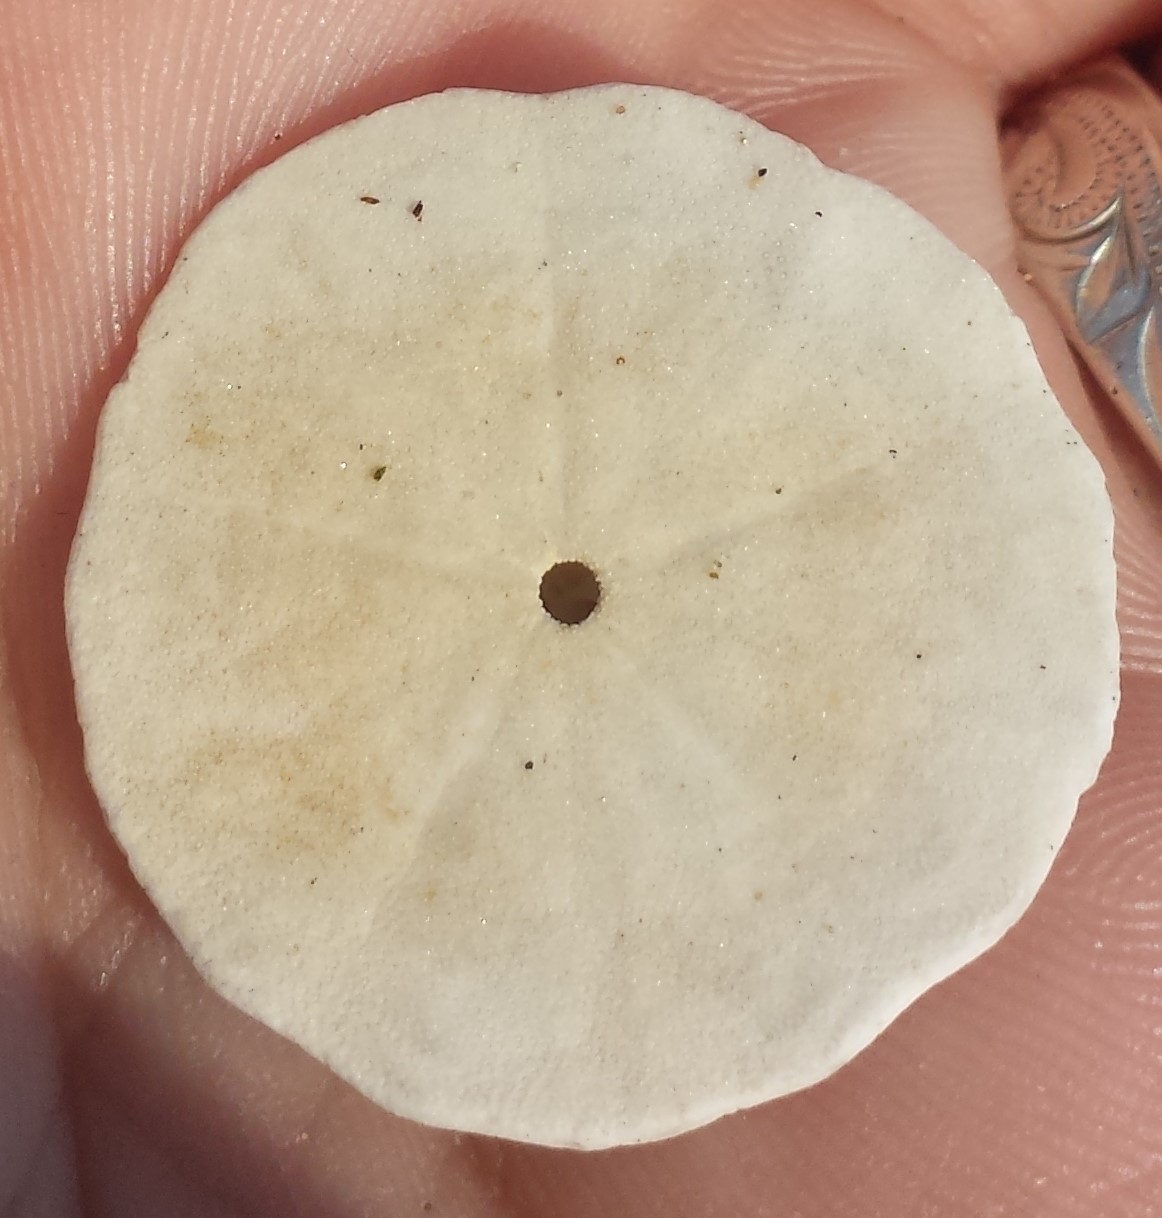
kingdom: Animalia
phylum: Echinodermata
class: Echinoidea
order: Echinolampadacea
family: Echinarachniidae
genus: Echinarachnius
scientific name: Echinarachnius parma
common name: Common sand dollar
